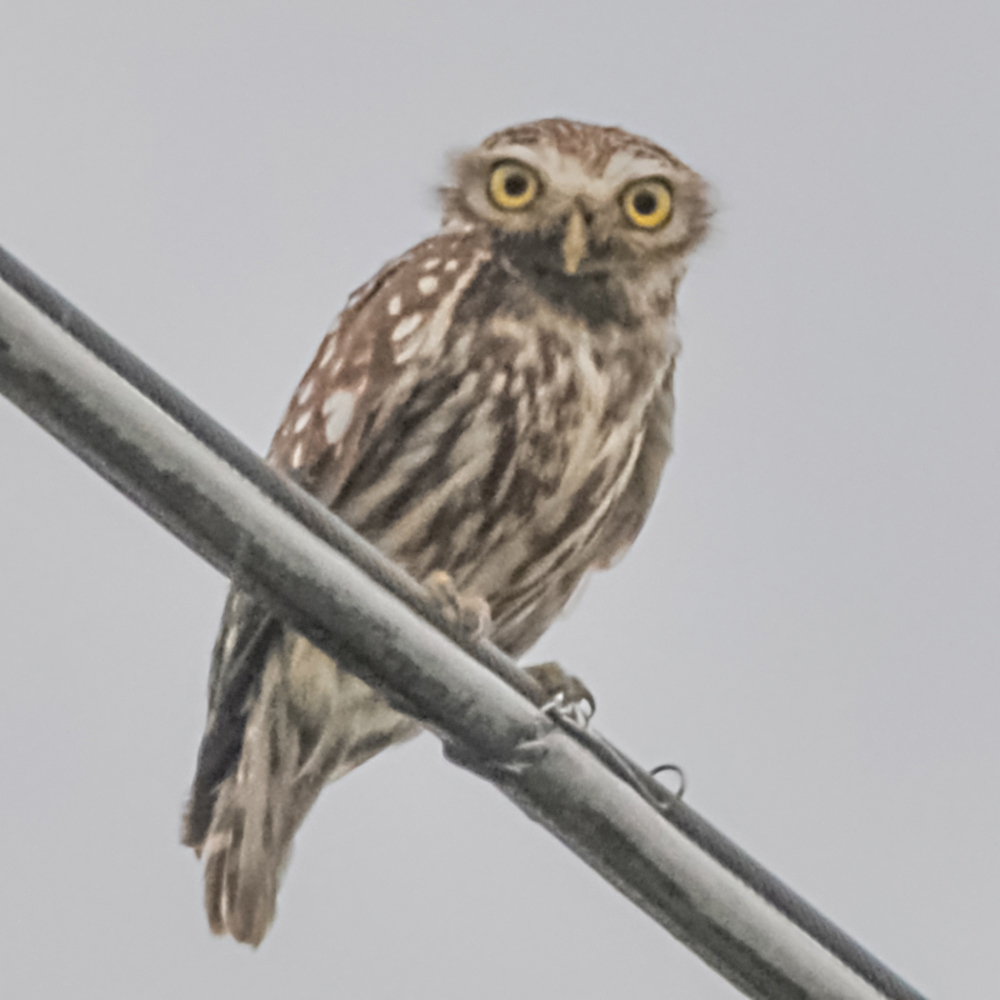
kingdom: Animalia
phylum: Chordata
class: Aves
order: Strigiformes
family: Strigidae
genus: Athene
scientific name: Athene noctua
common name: Little owl
